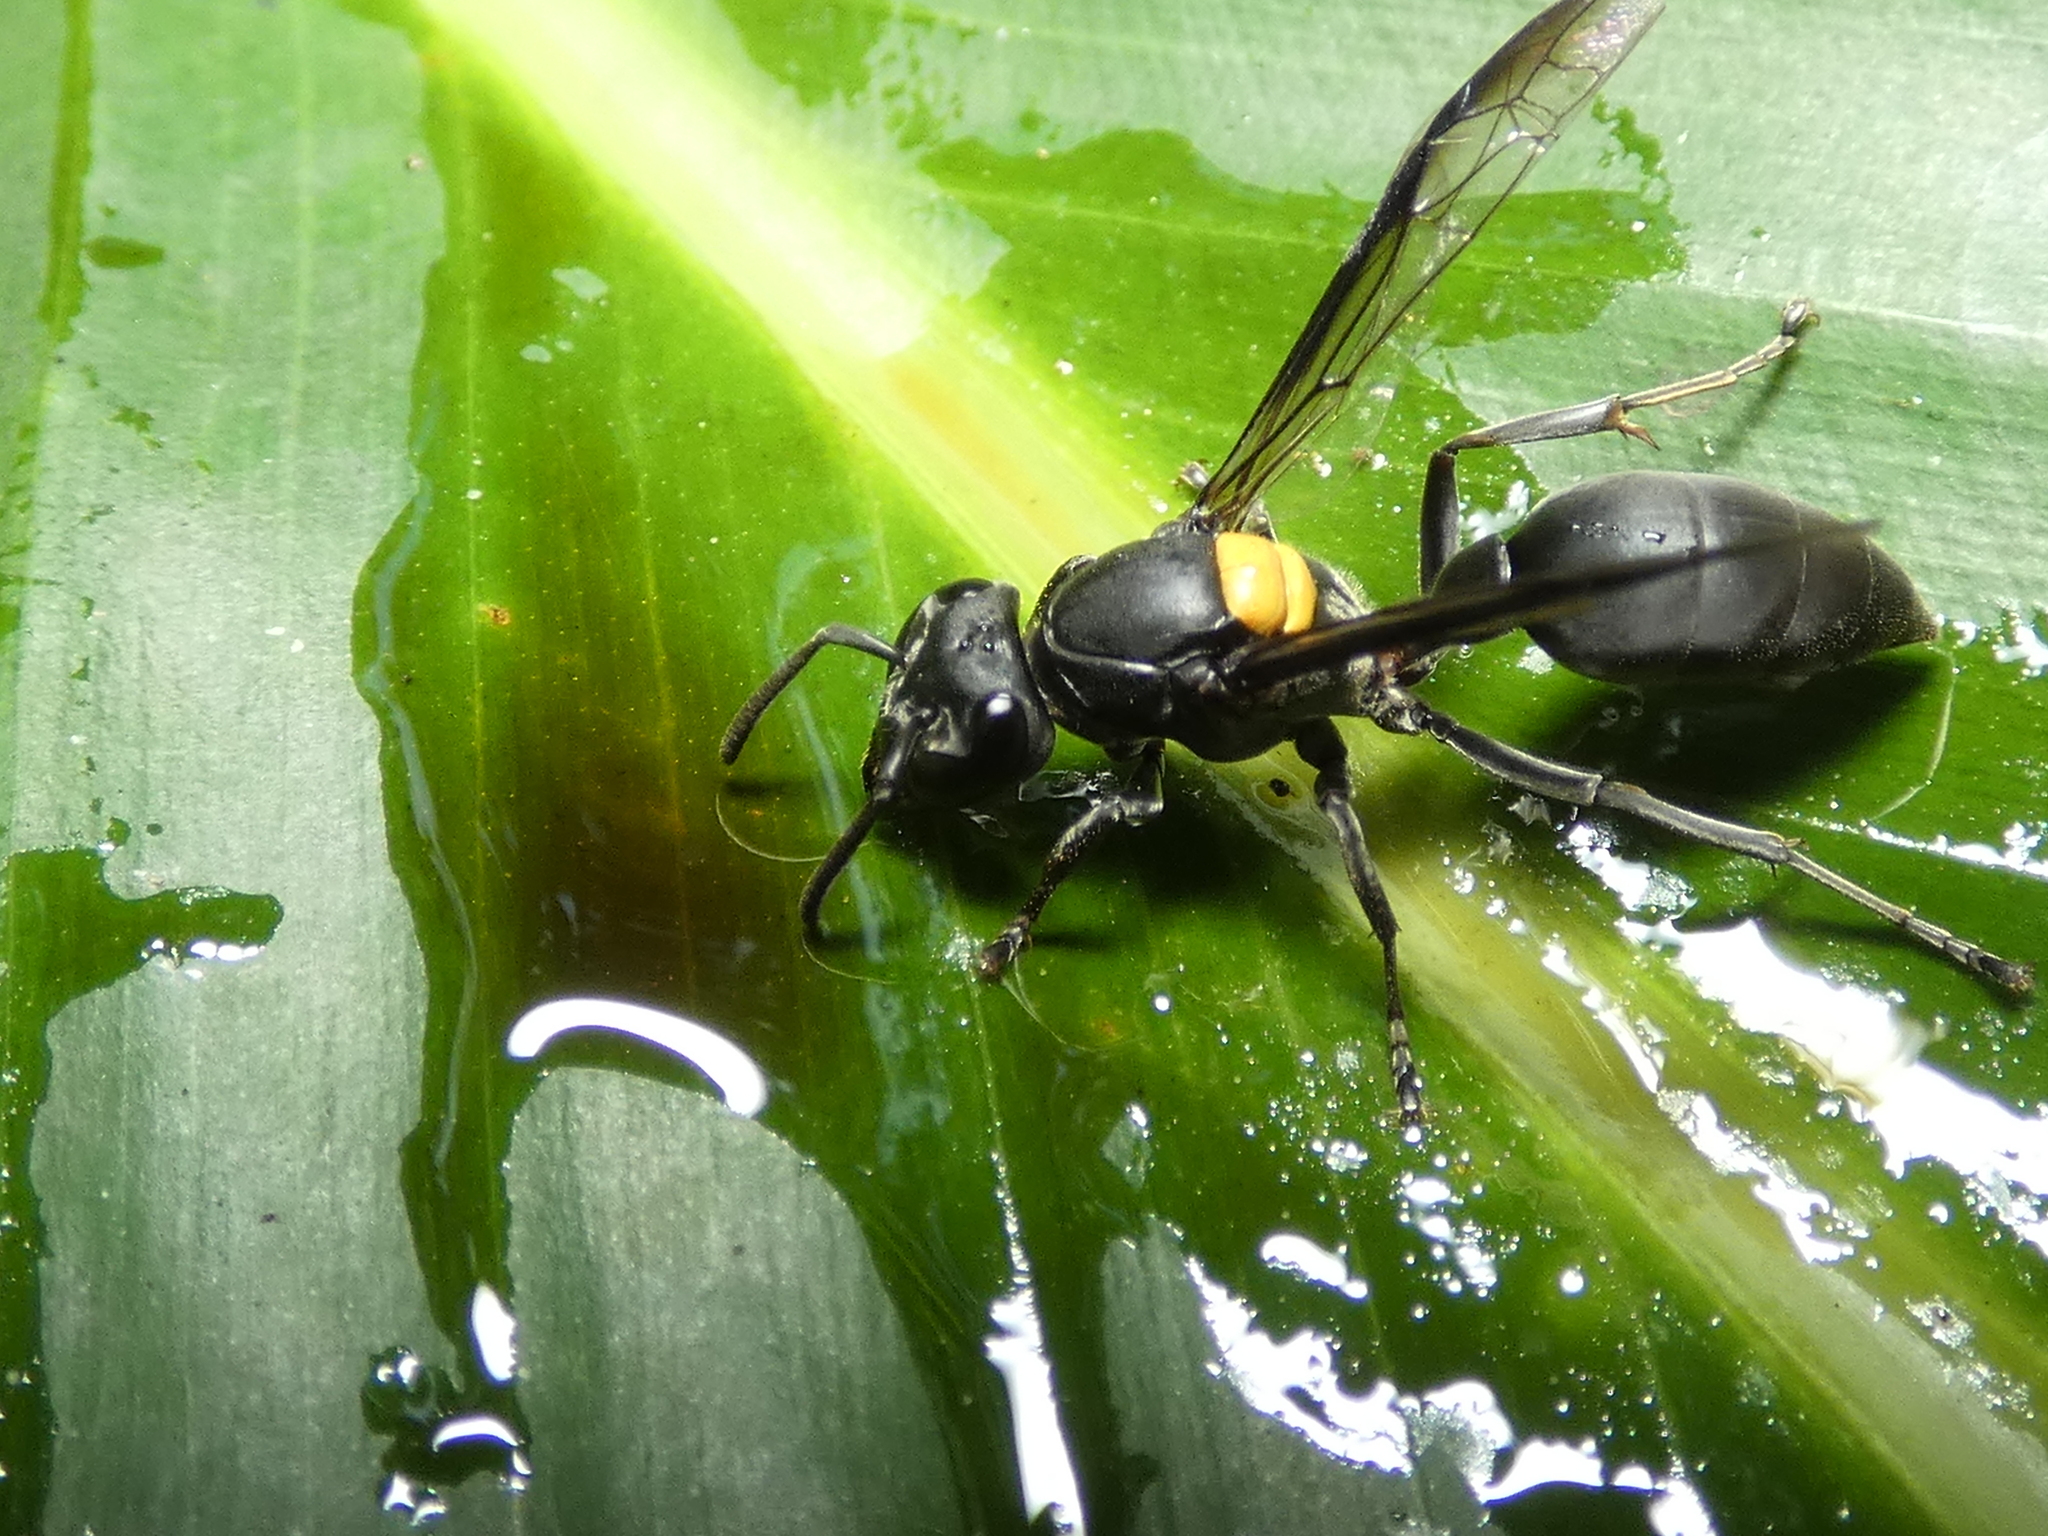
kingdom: Animalia
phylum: Arthropoda
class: Insecta
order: Hymenoptera
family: Eumenidae
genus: Polybia
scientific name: Polybia jurinei
